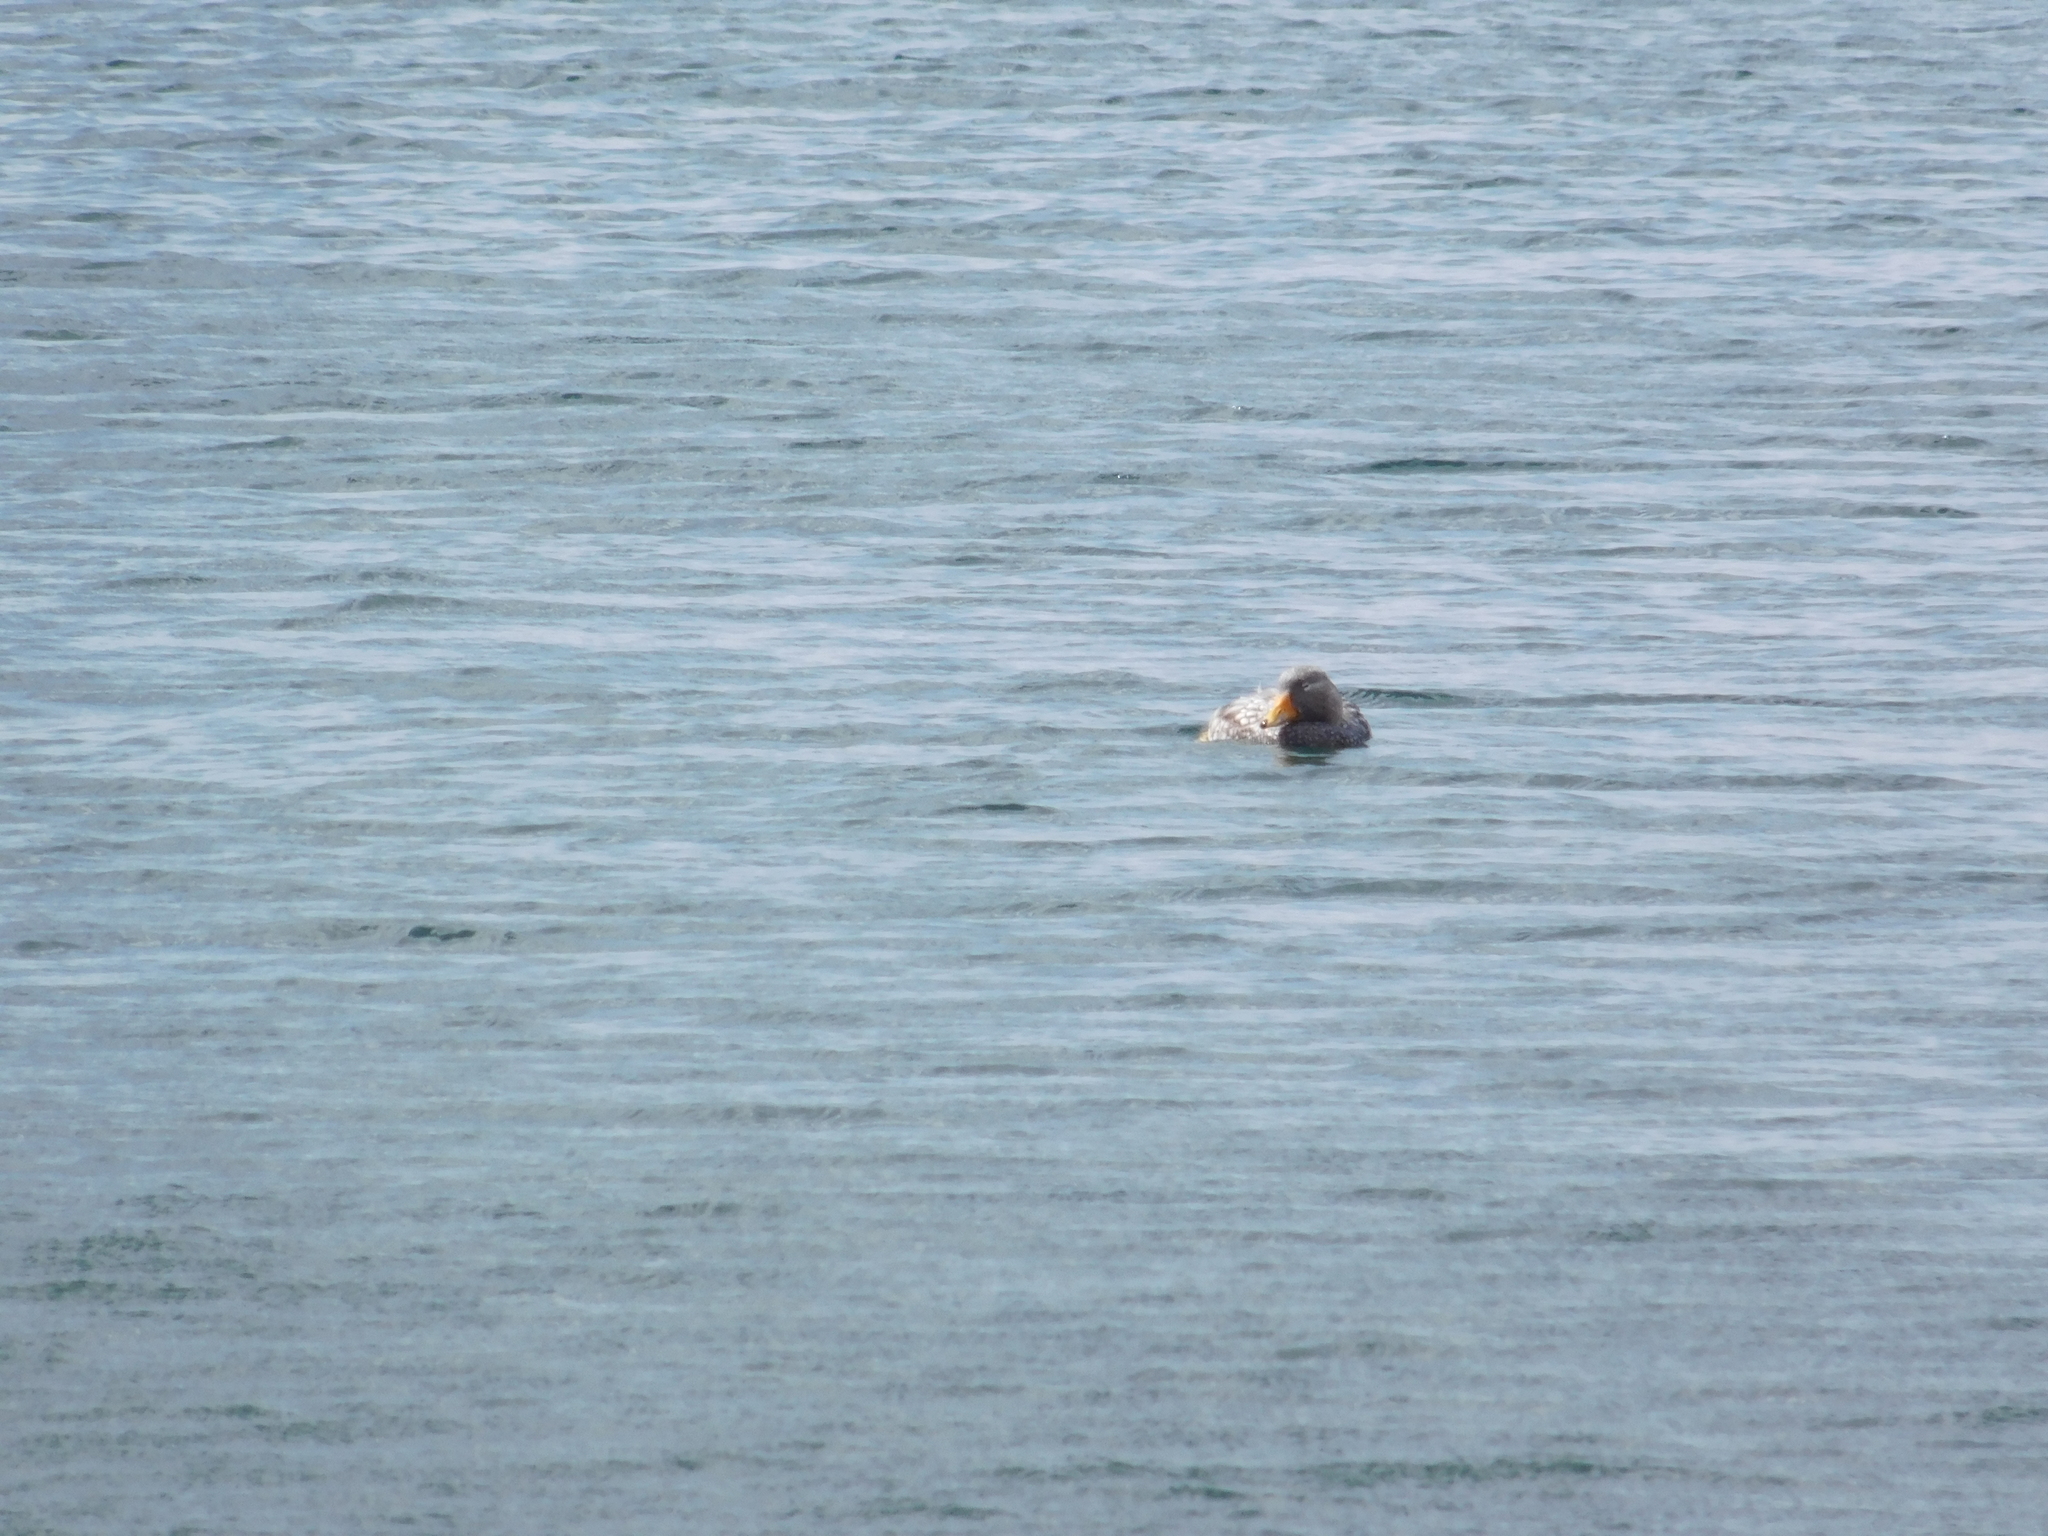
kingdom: Animalia
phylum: Chordata
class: Aves
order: Anseriformes
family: Anatidae
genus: Tachyeres
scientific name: Tachyeres patachonicus
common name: Flying steamer duck
